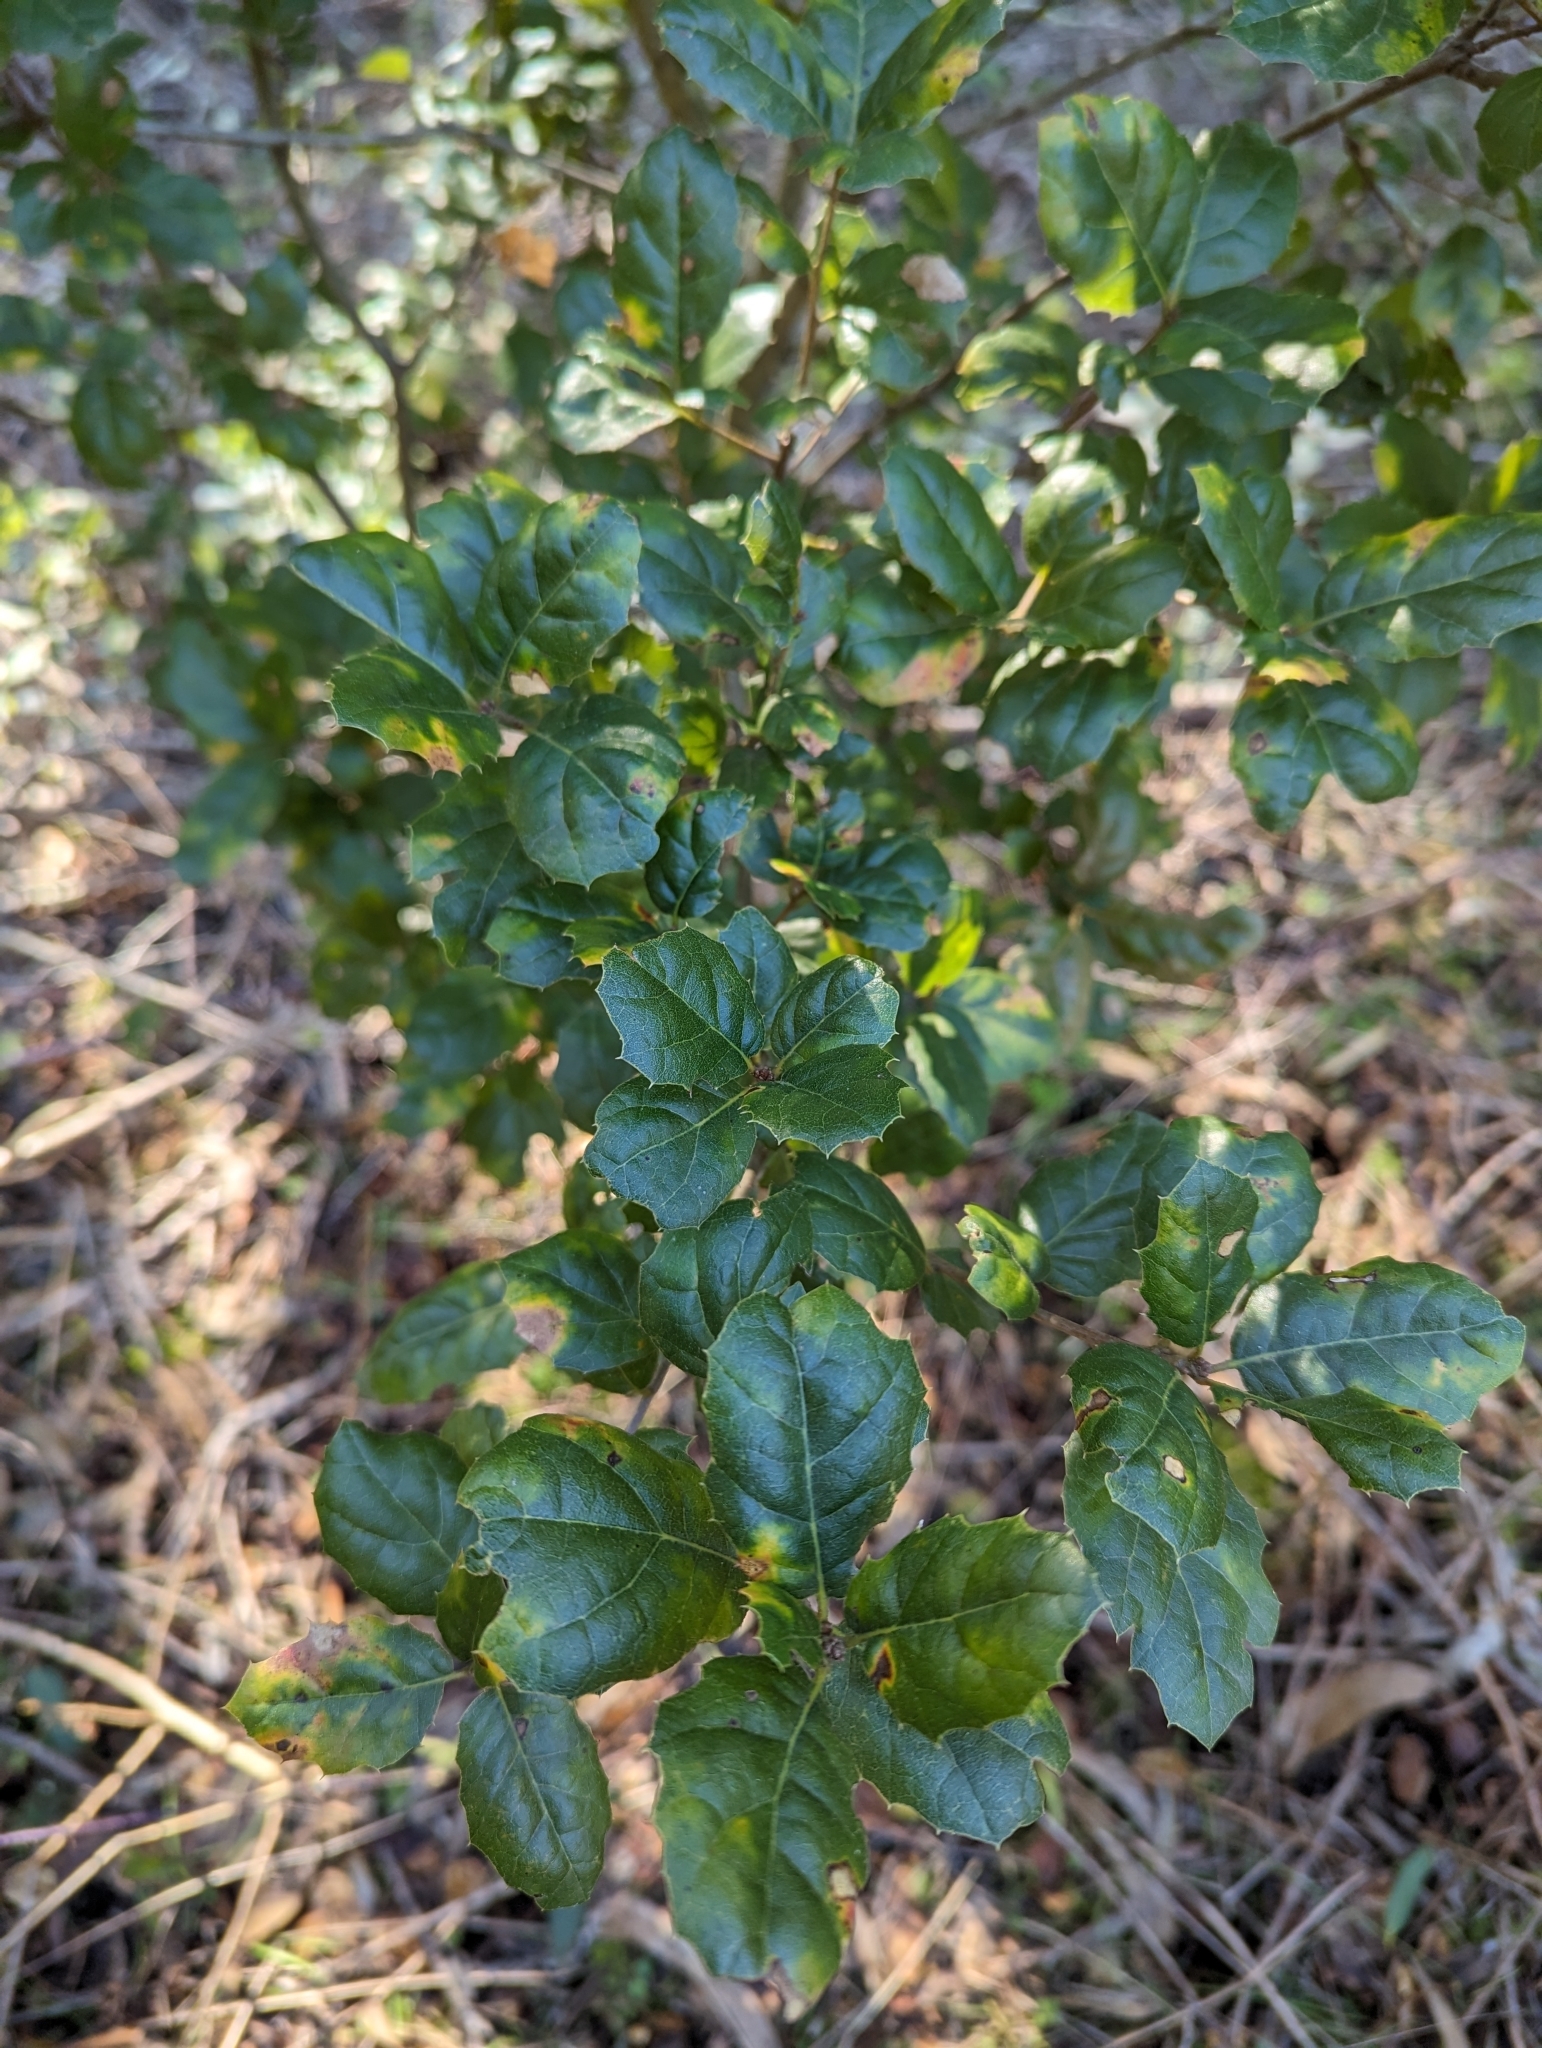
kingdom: Plantae
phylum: Tracheophyta
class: Magnoliopsida
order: Fagales
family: Fagaceae
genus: Quercus
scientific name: Quercus agrifolia
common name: California live oak
